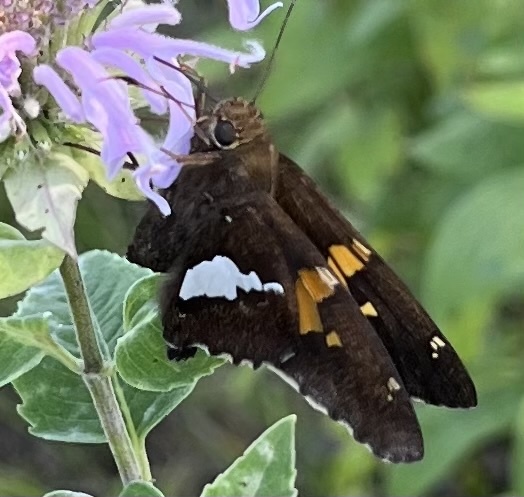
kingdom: Animalia
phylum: Arthropoda
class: Insecta
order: Lepidoptera
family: Hesperiidae
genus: Epargyreus
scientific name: Epargyreus clarus
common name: Silver-spotted skipper
